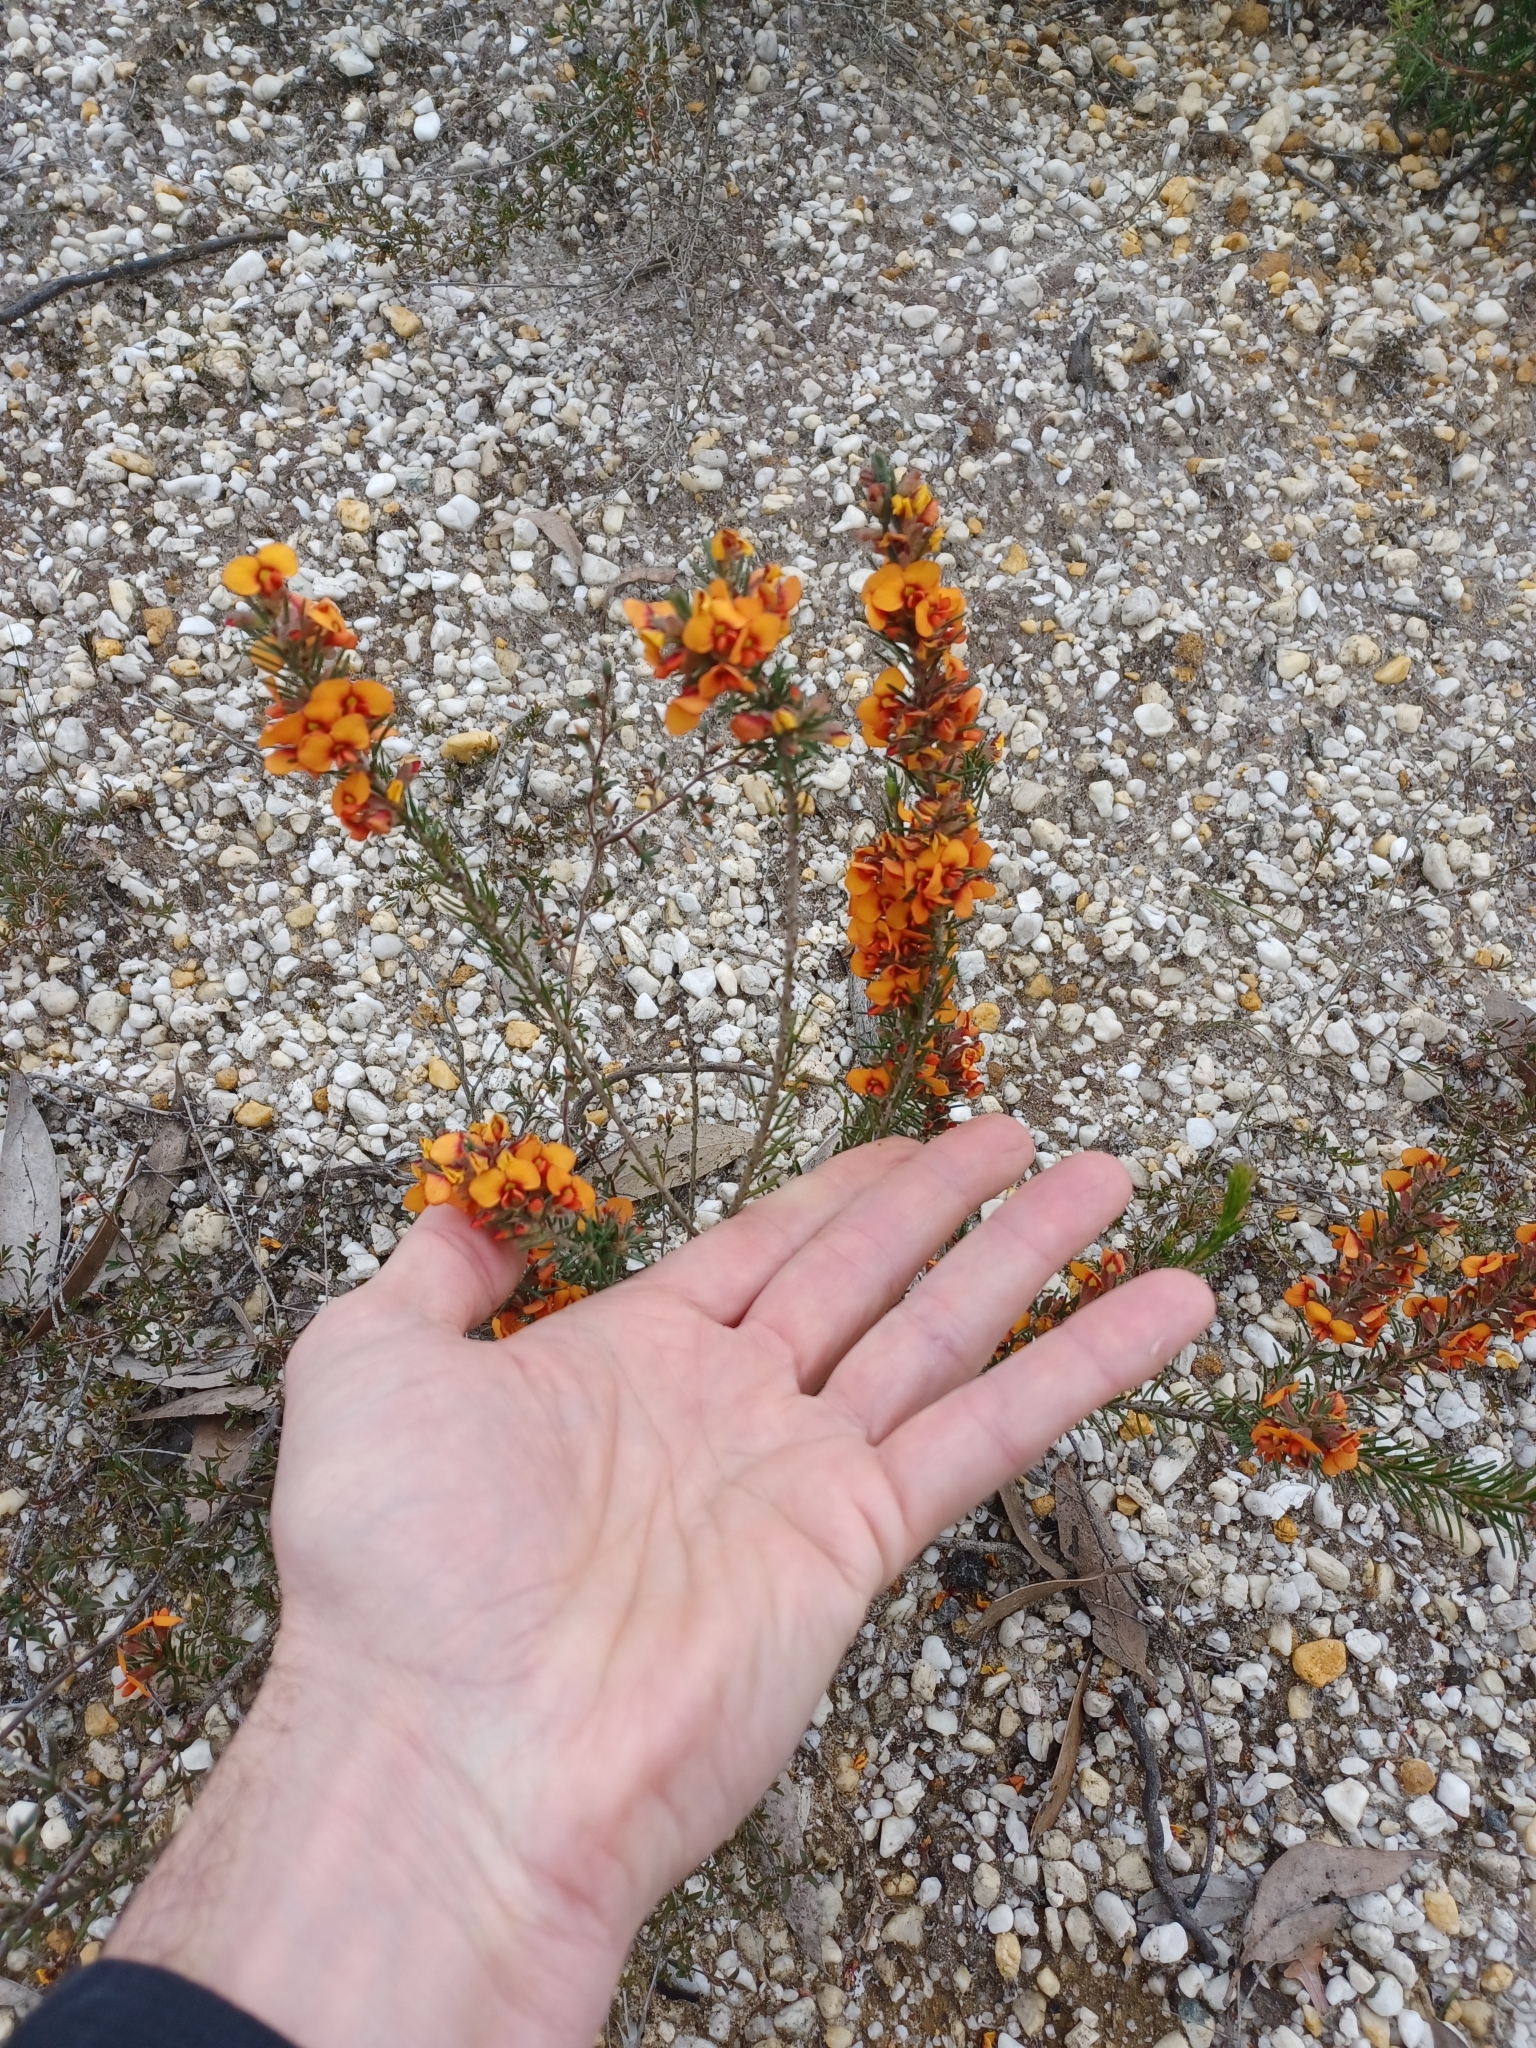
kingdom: Plantae
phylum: Tracheophyta
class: Magnoliopsida
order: Fabales
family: Fabaceae
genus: Dillwynia
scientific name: Dillwynia sericea
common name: Showy parrot-pea
